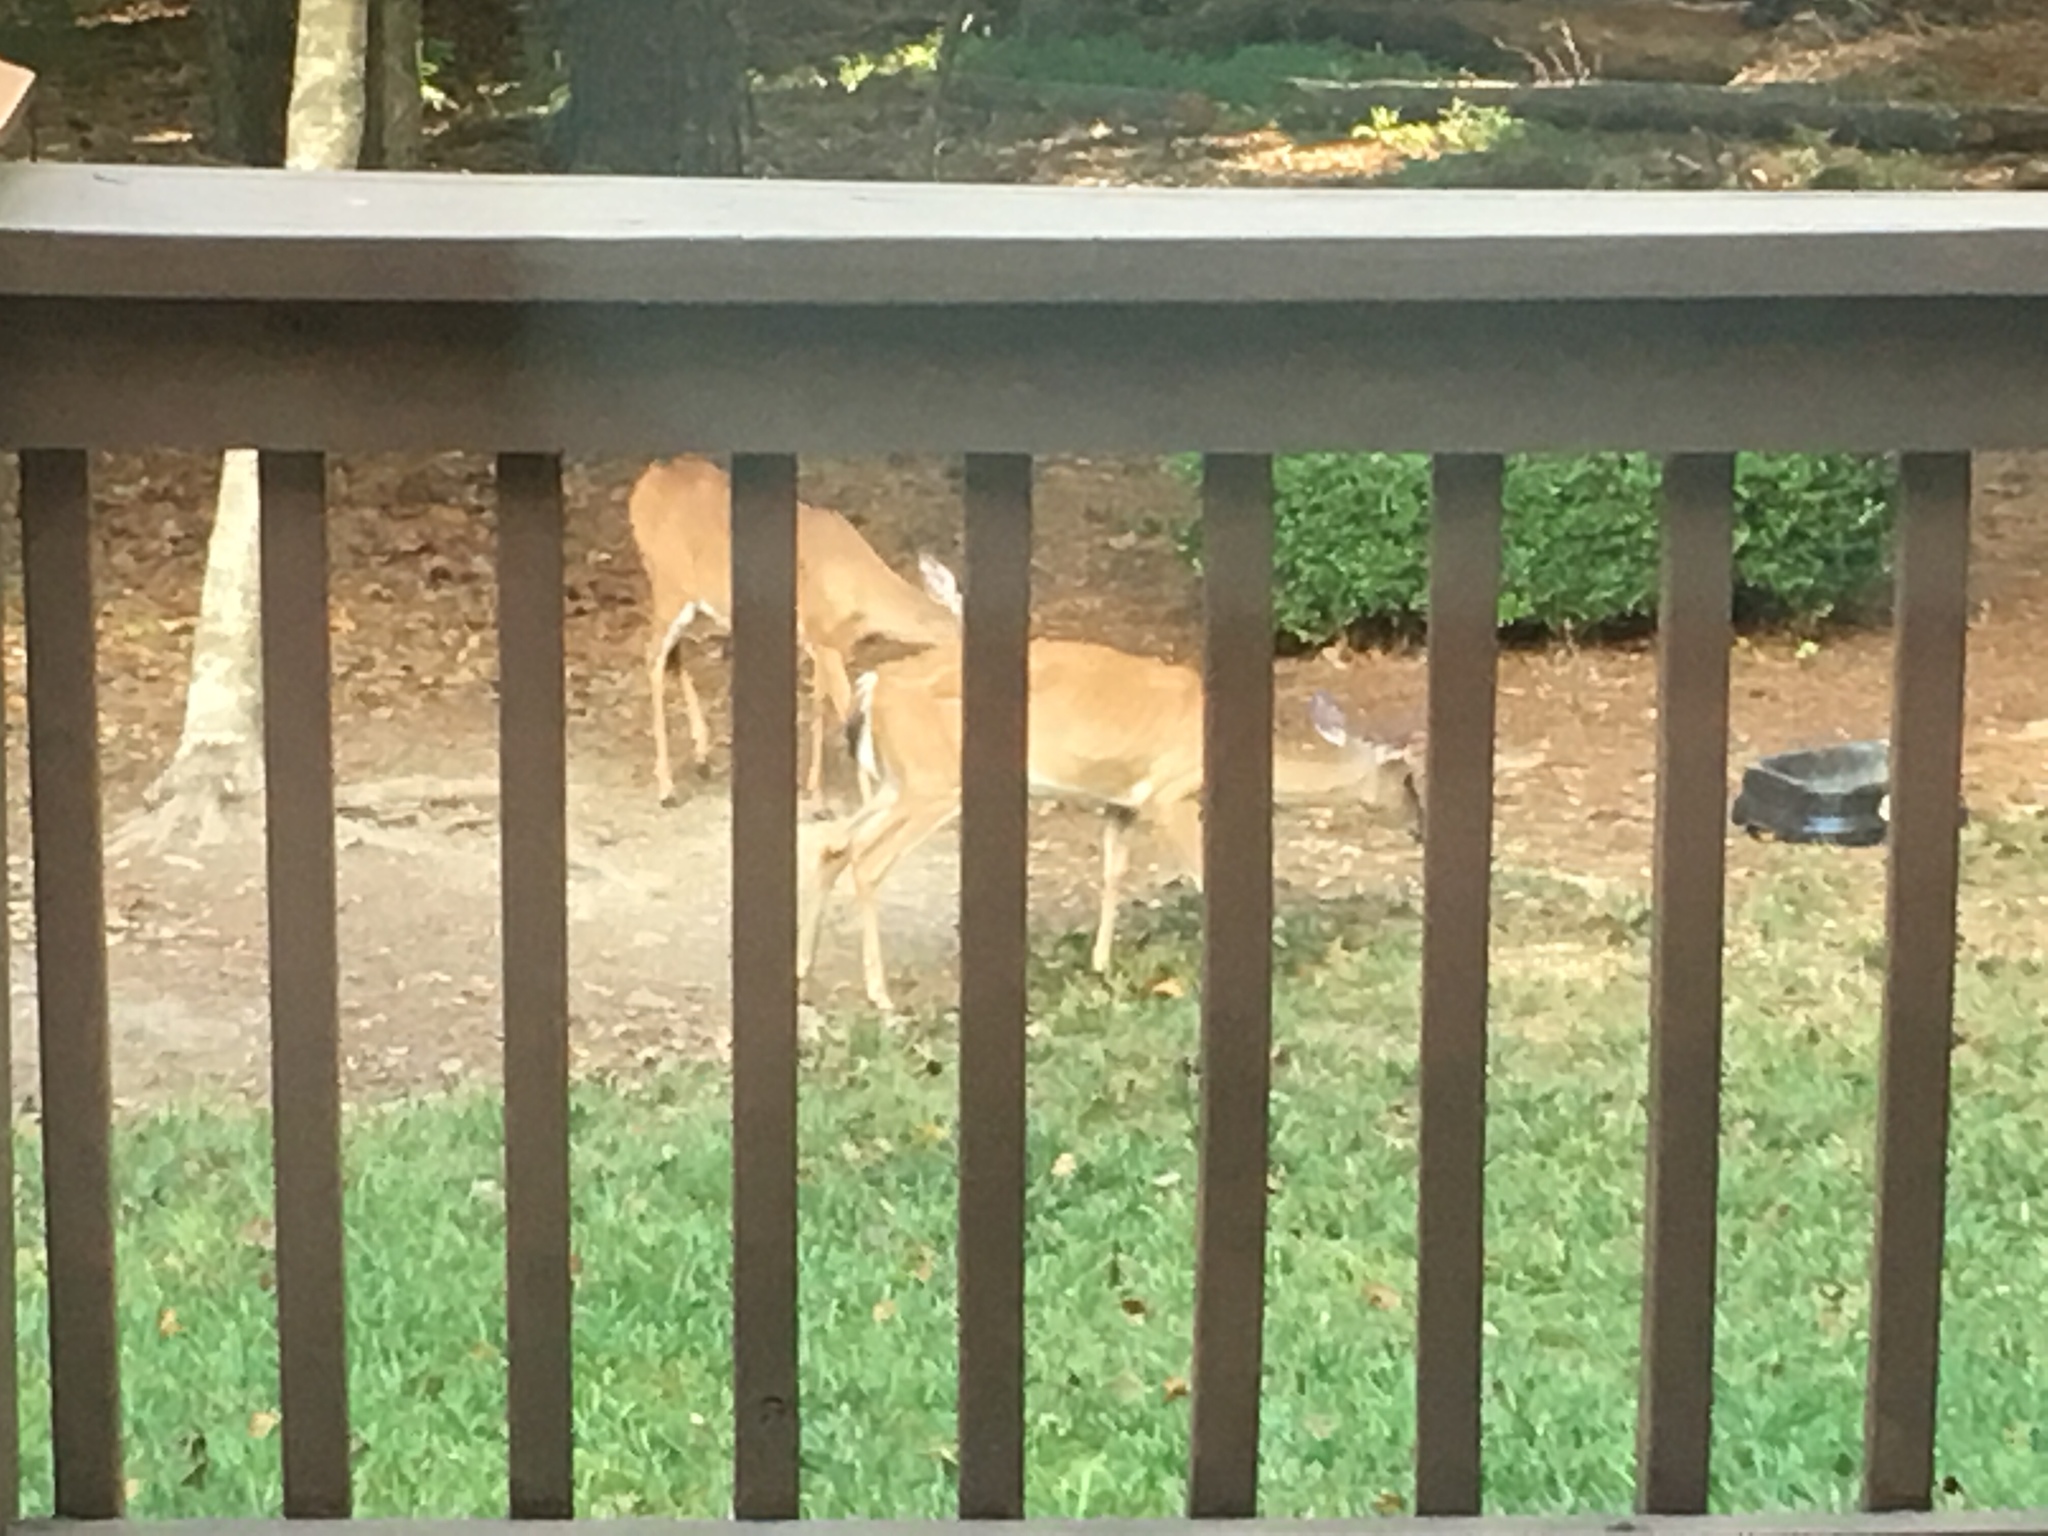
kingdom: Animalia
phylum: Chordata
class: Mammalia
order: Artiodactyla
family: Cervidae
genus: Odocoileus
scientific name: Odocoileus virginianus
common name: White-tailed deer
